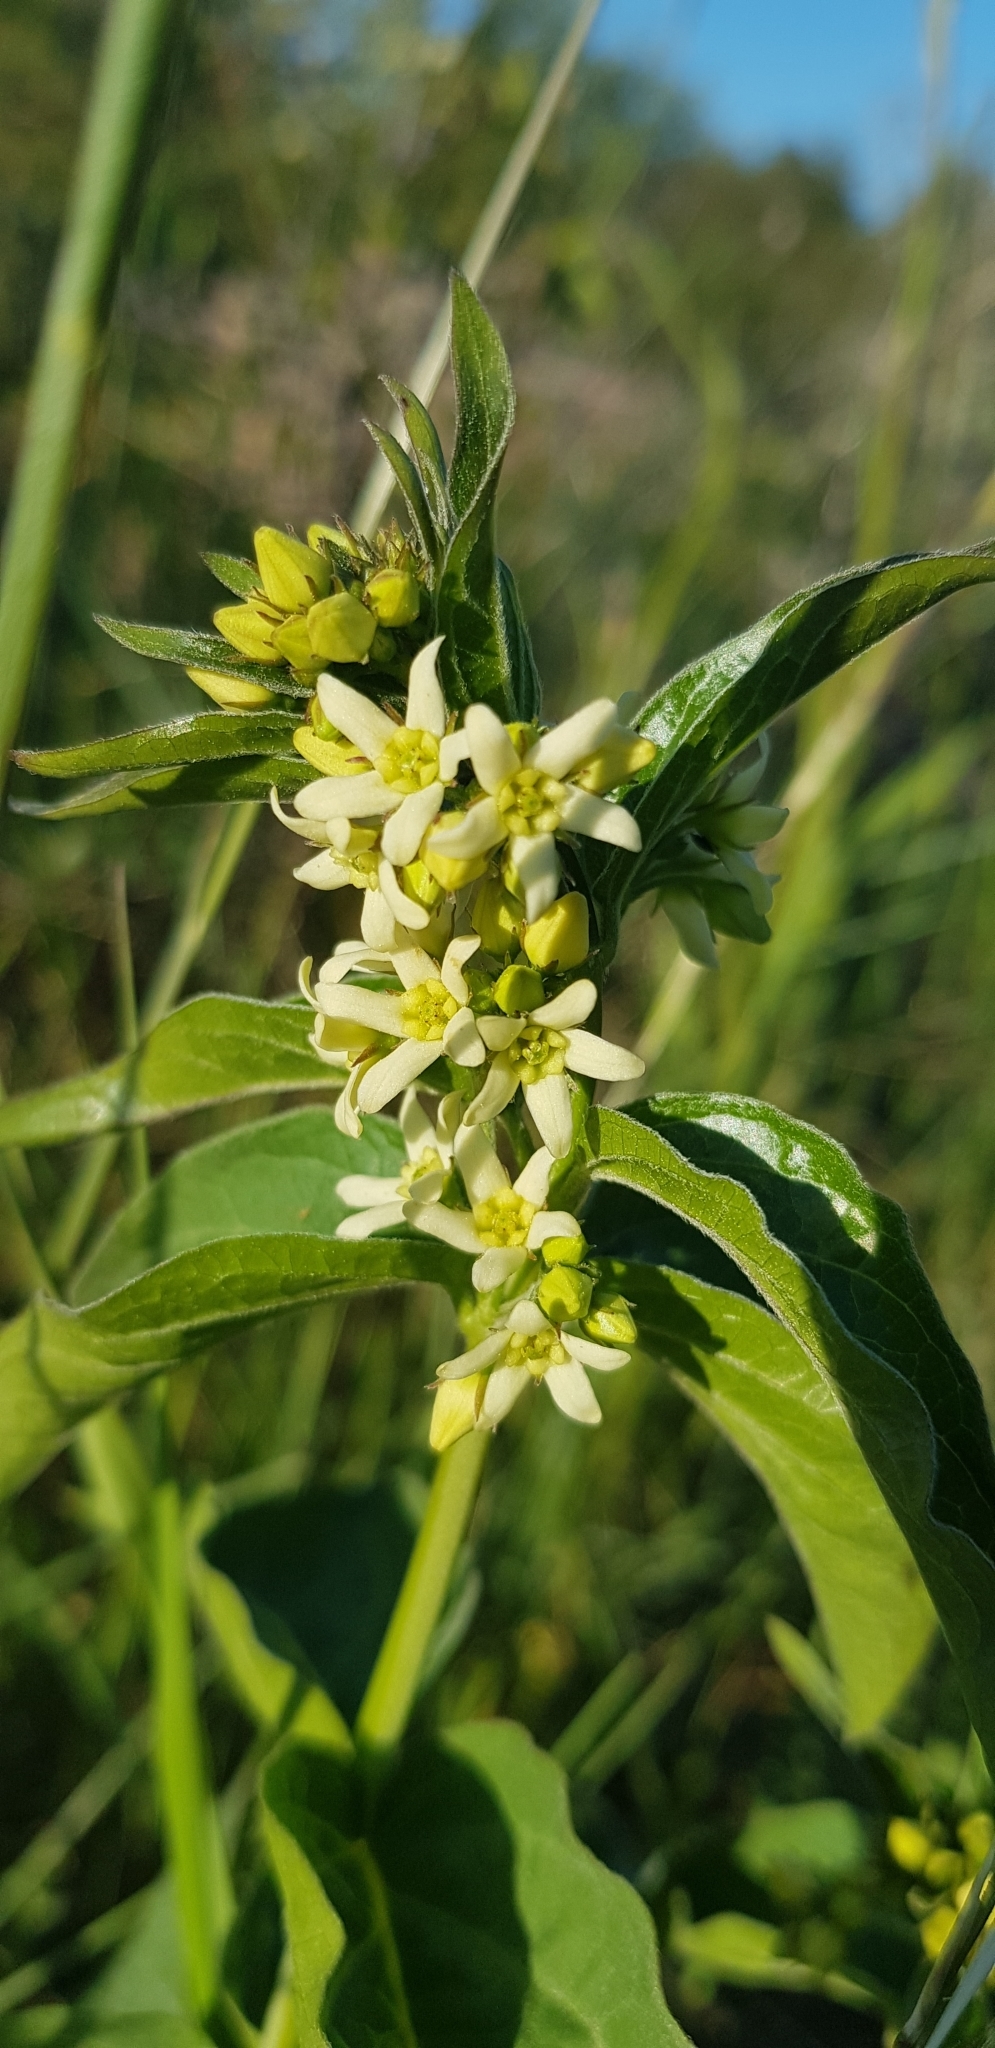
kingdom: Plantae
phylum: Tracheophyta
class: Magnoliopsida
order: Gentianales
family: Apocynaceae
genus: Vincetoxicum
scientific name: Vincetoxicum hirundinaria
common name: White swallowwort
